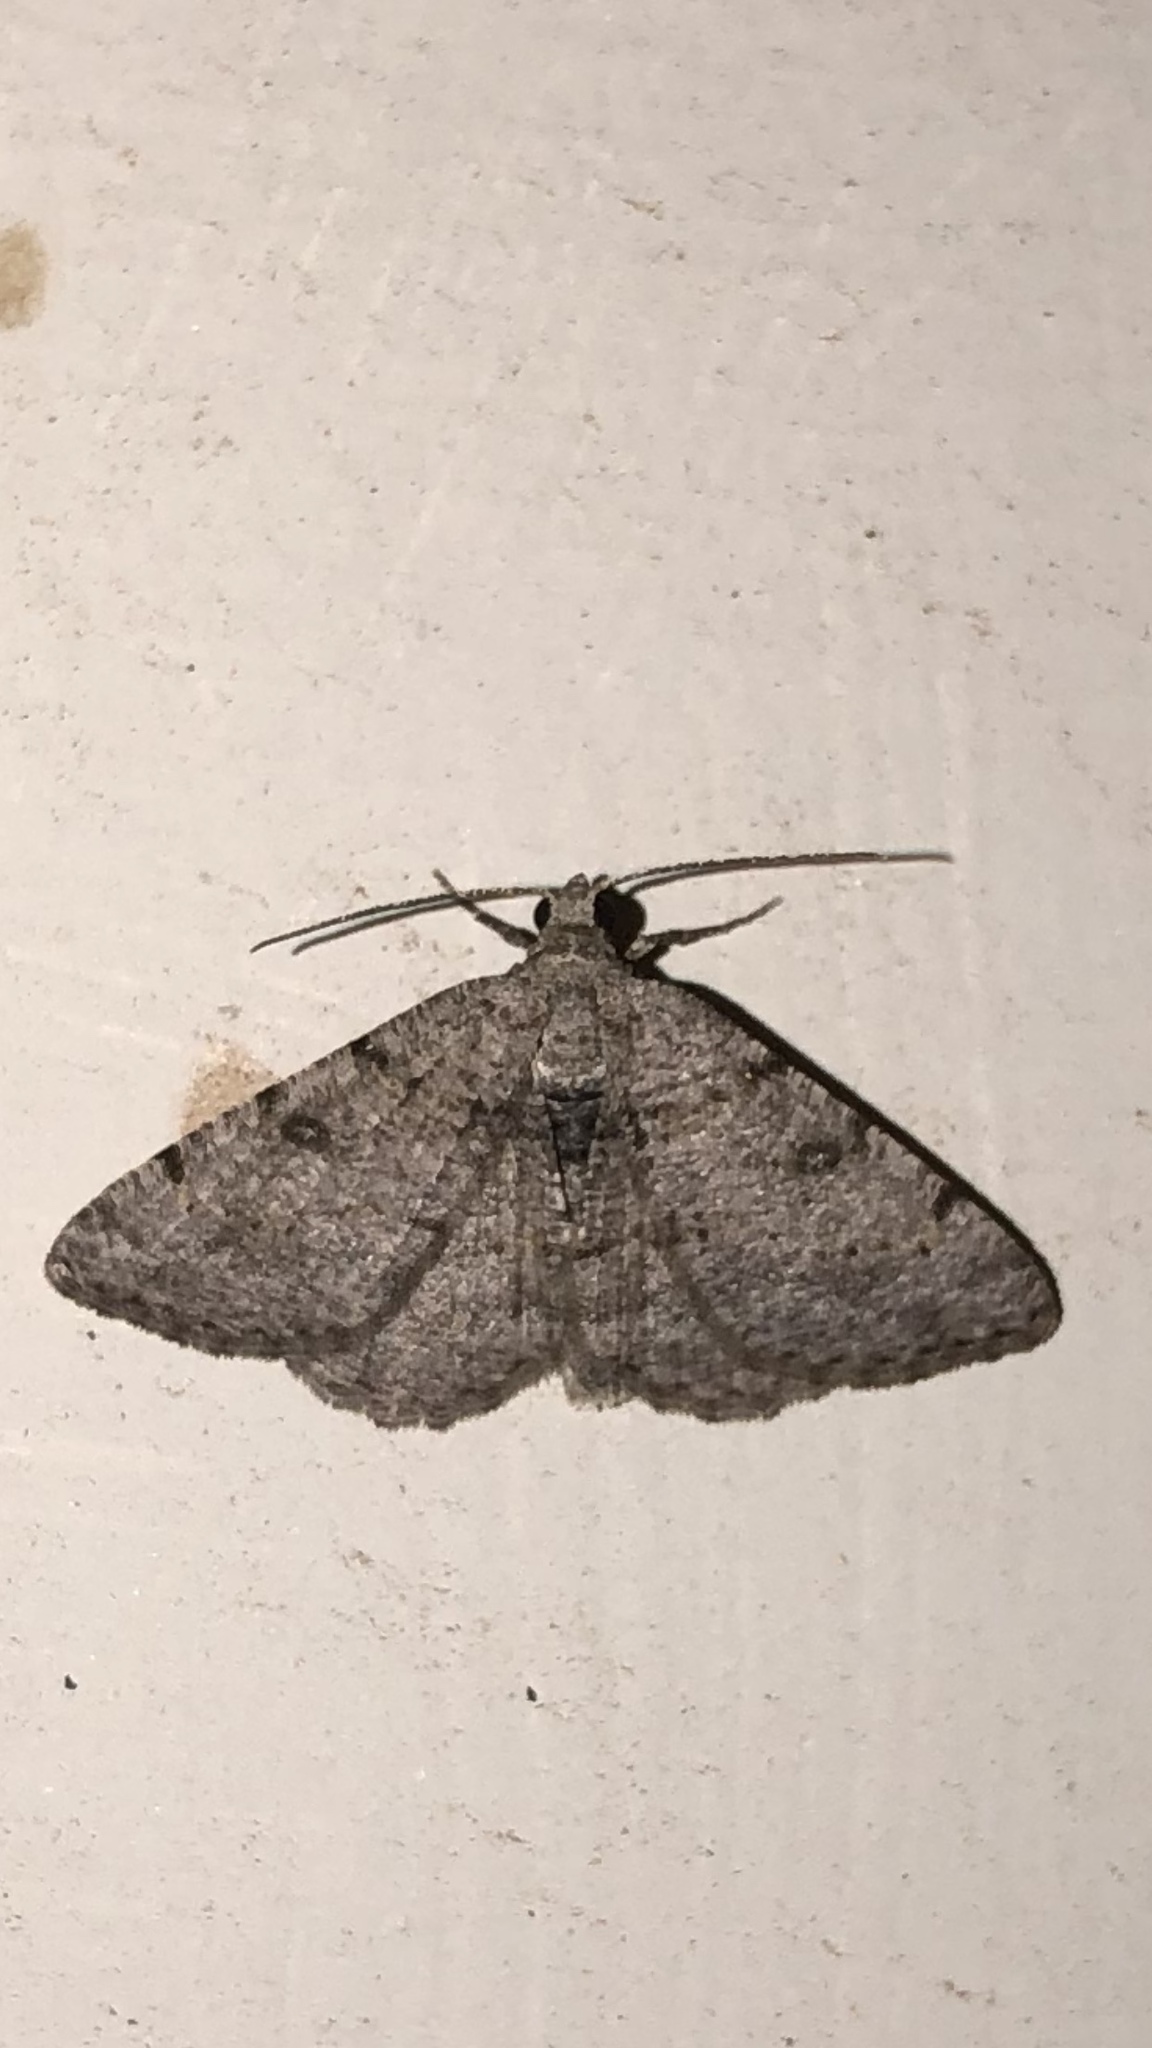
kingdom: Animalia
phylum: Arthropoda
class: Insecta
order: Lepidoptera
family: Geometridae
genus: Digrammia
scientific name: Digrammia gnophosaria
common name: Hollow-spotted angle
